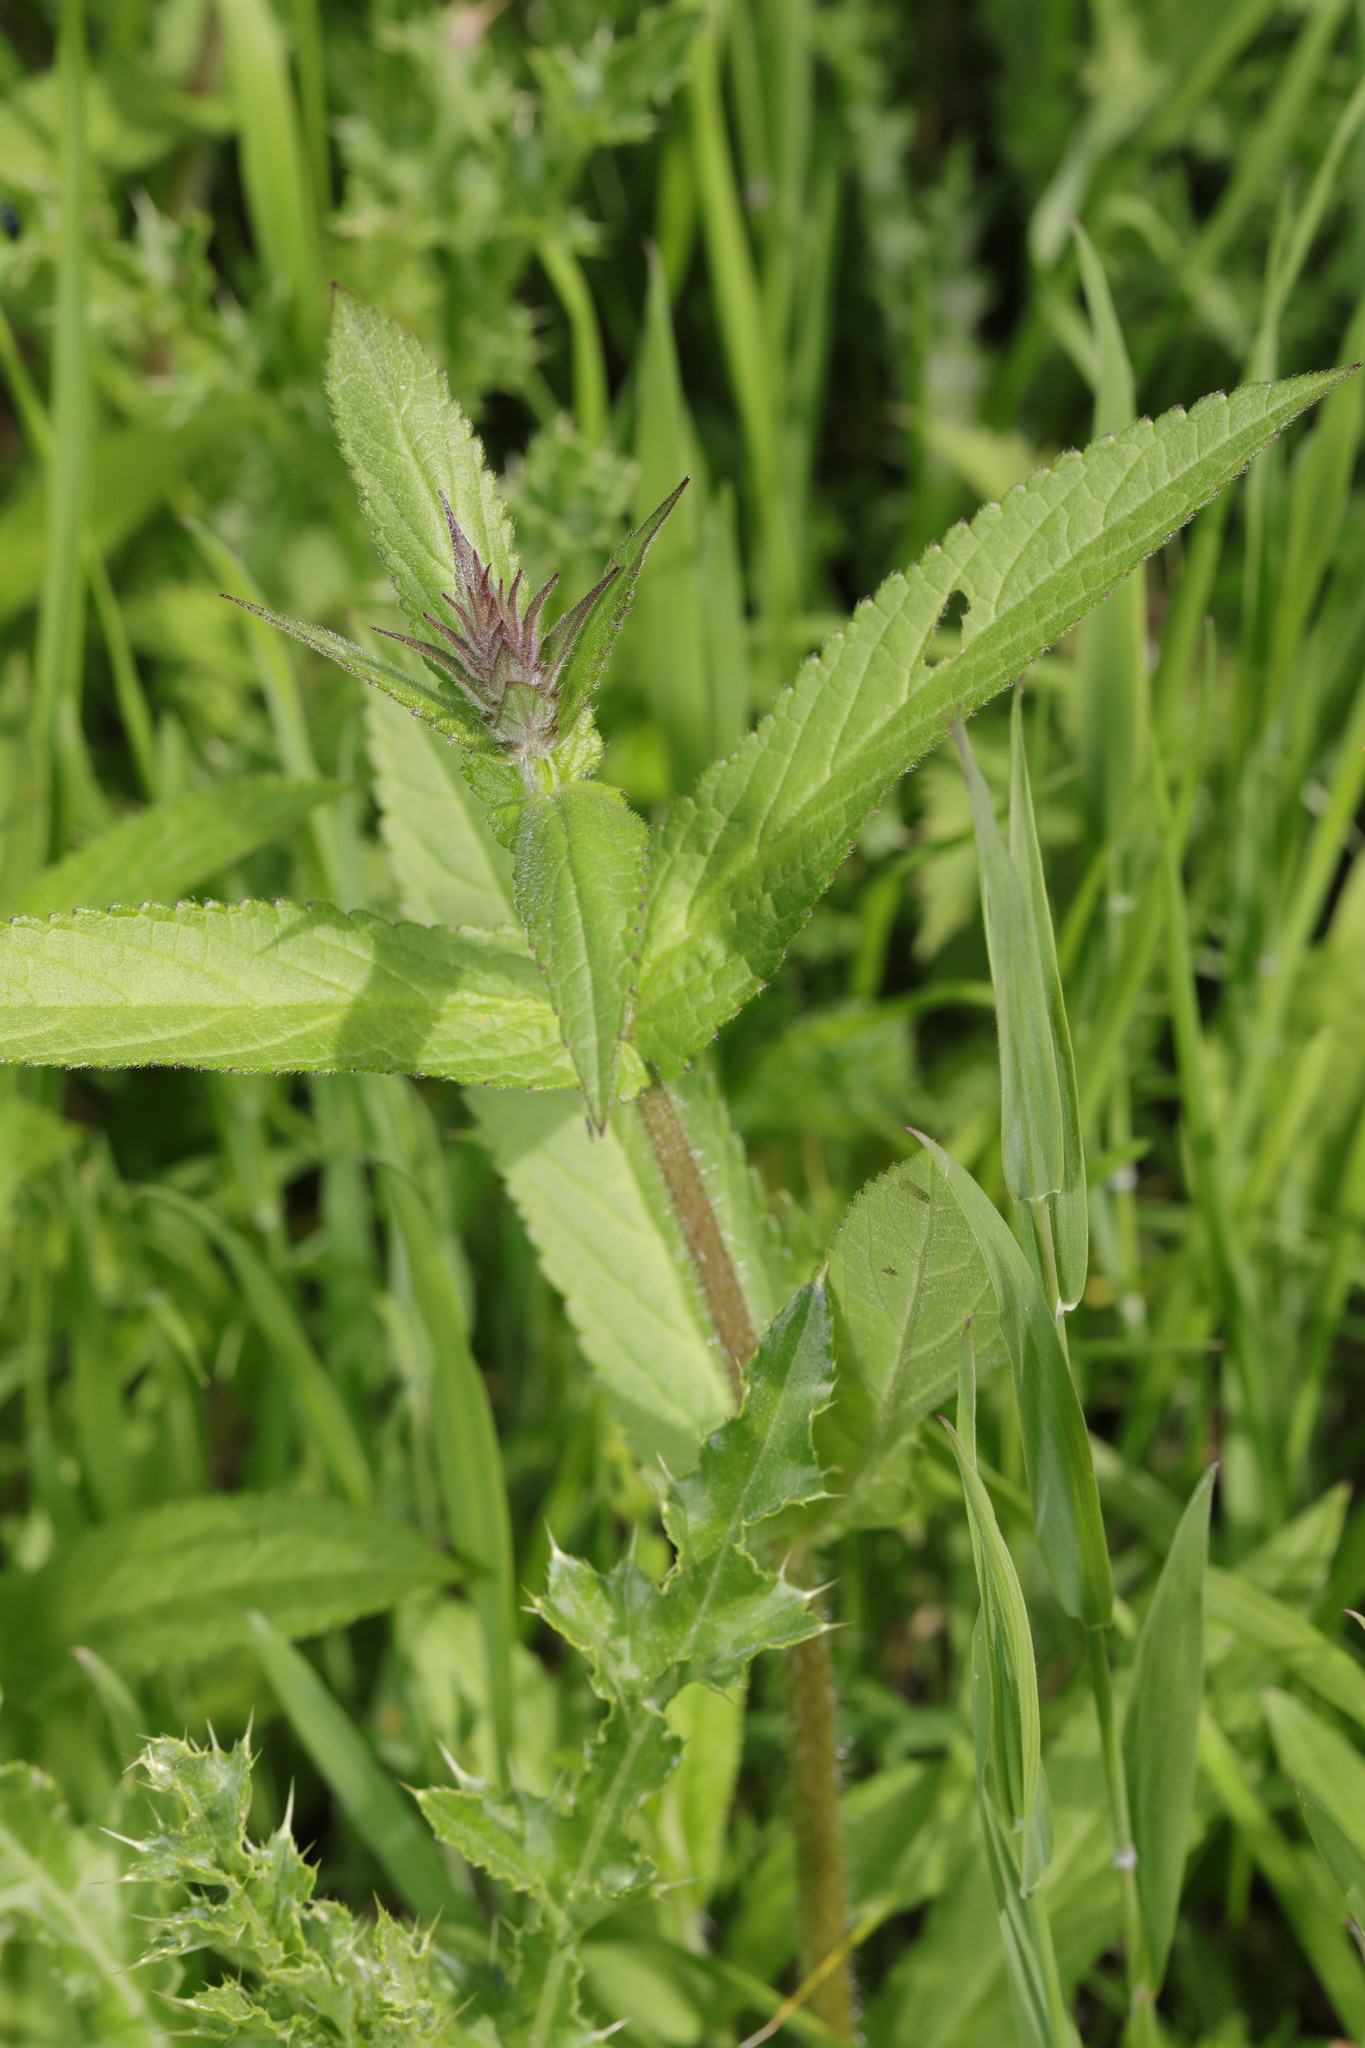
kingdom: Plantae
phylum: Tracheophyta
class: Magnoliopsida
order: Lamiales
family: Lamiaceae
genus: Stachys
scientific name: Stachys palustris
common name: Marsh woundwort
